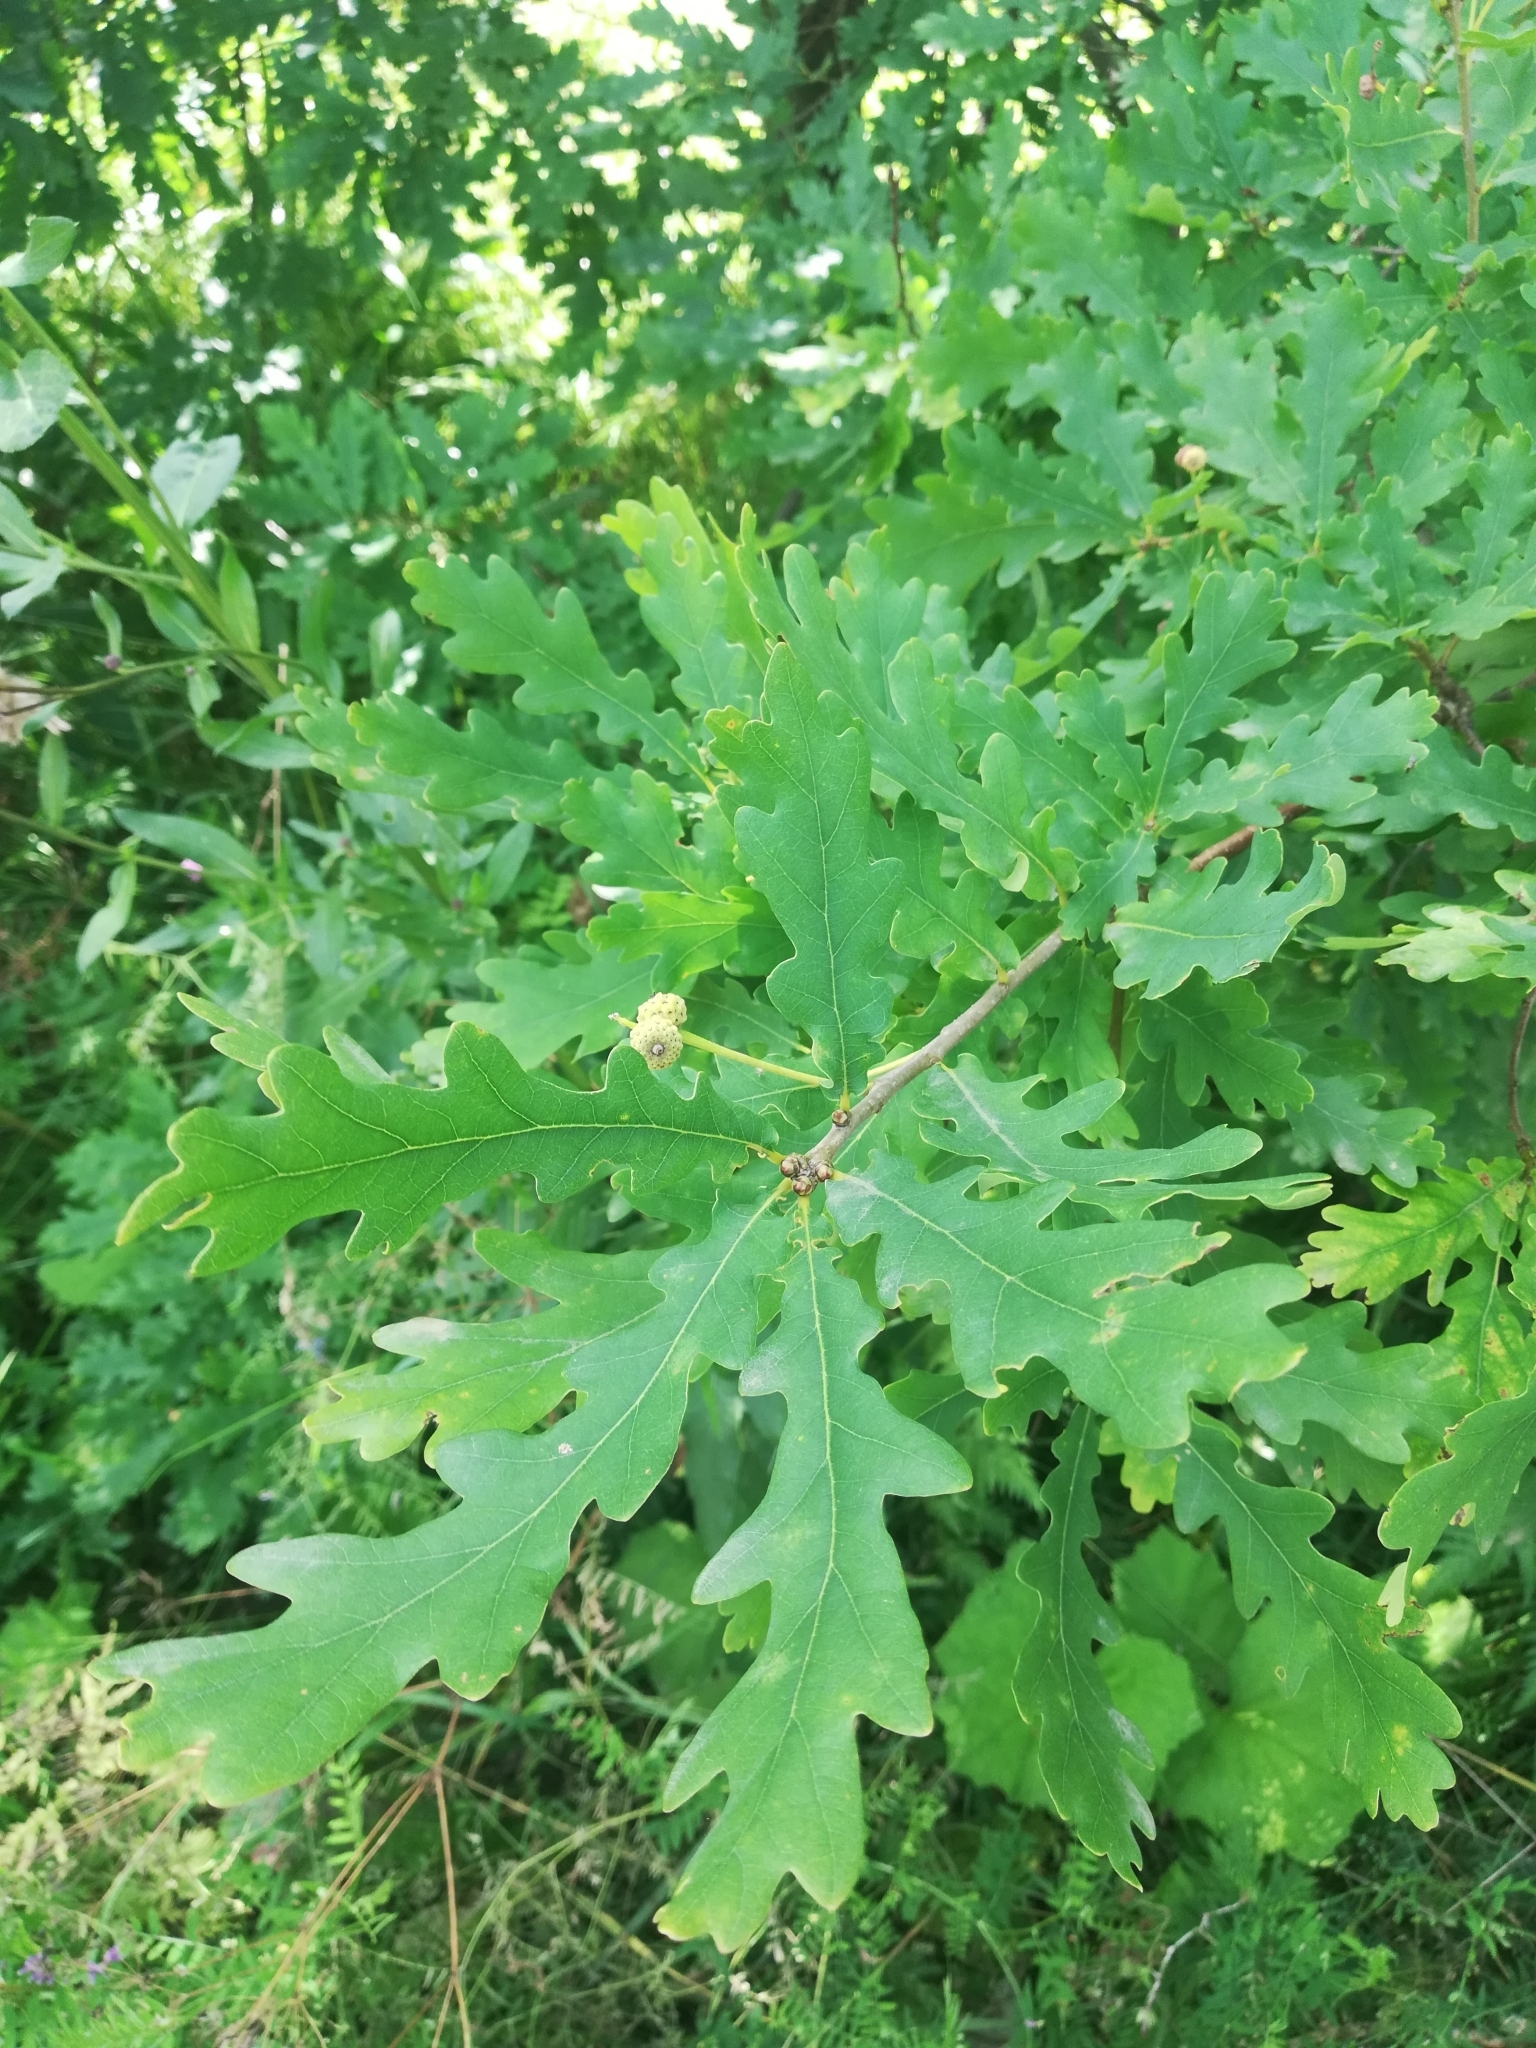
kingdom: Plantae
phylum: Tracheophyta
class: Magnoliopsida
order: Fagales
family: Fagaceae
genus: Quercus
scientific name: Quercus robur
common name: Pedunculate oak
